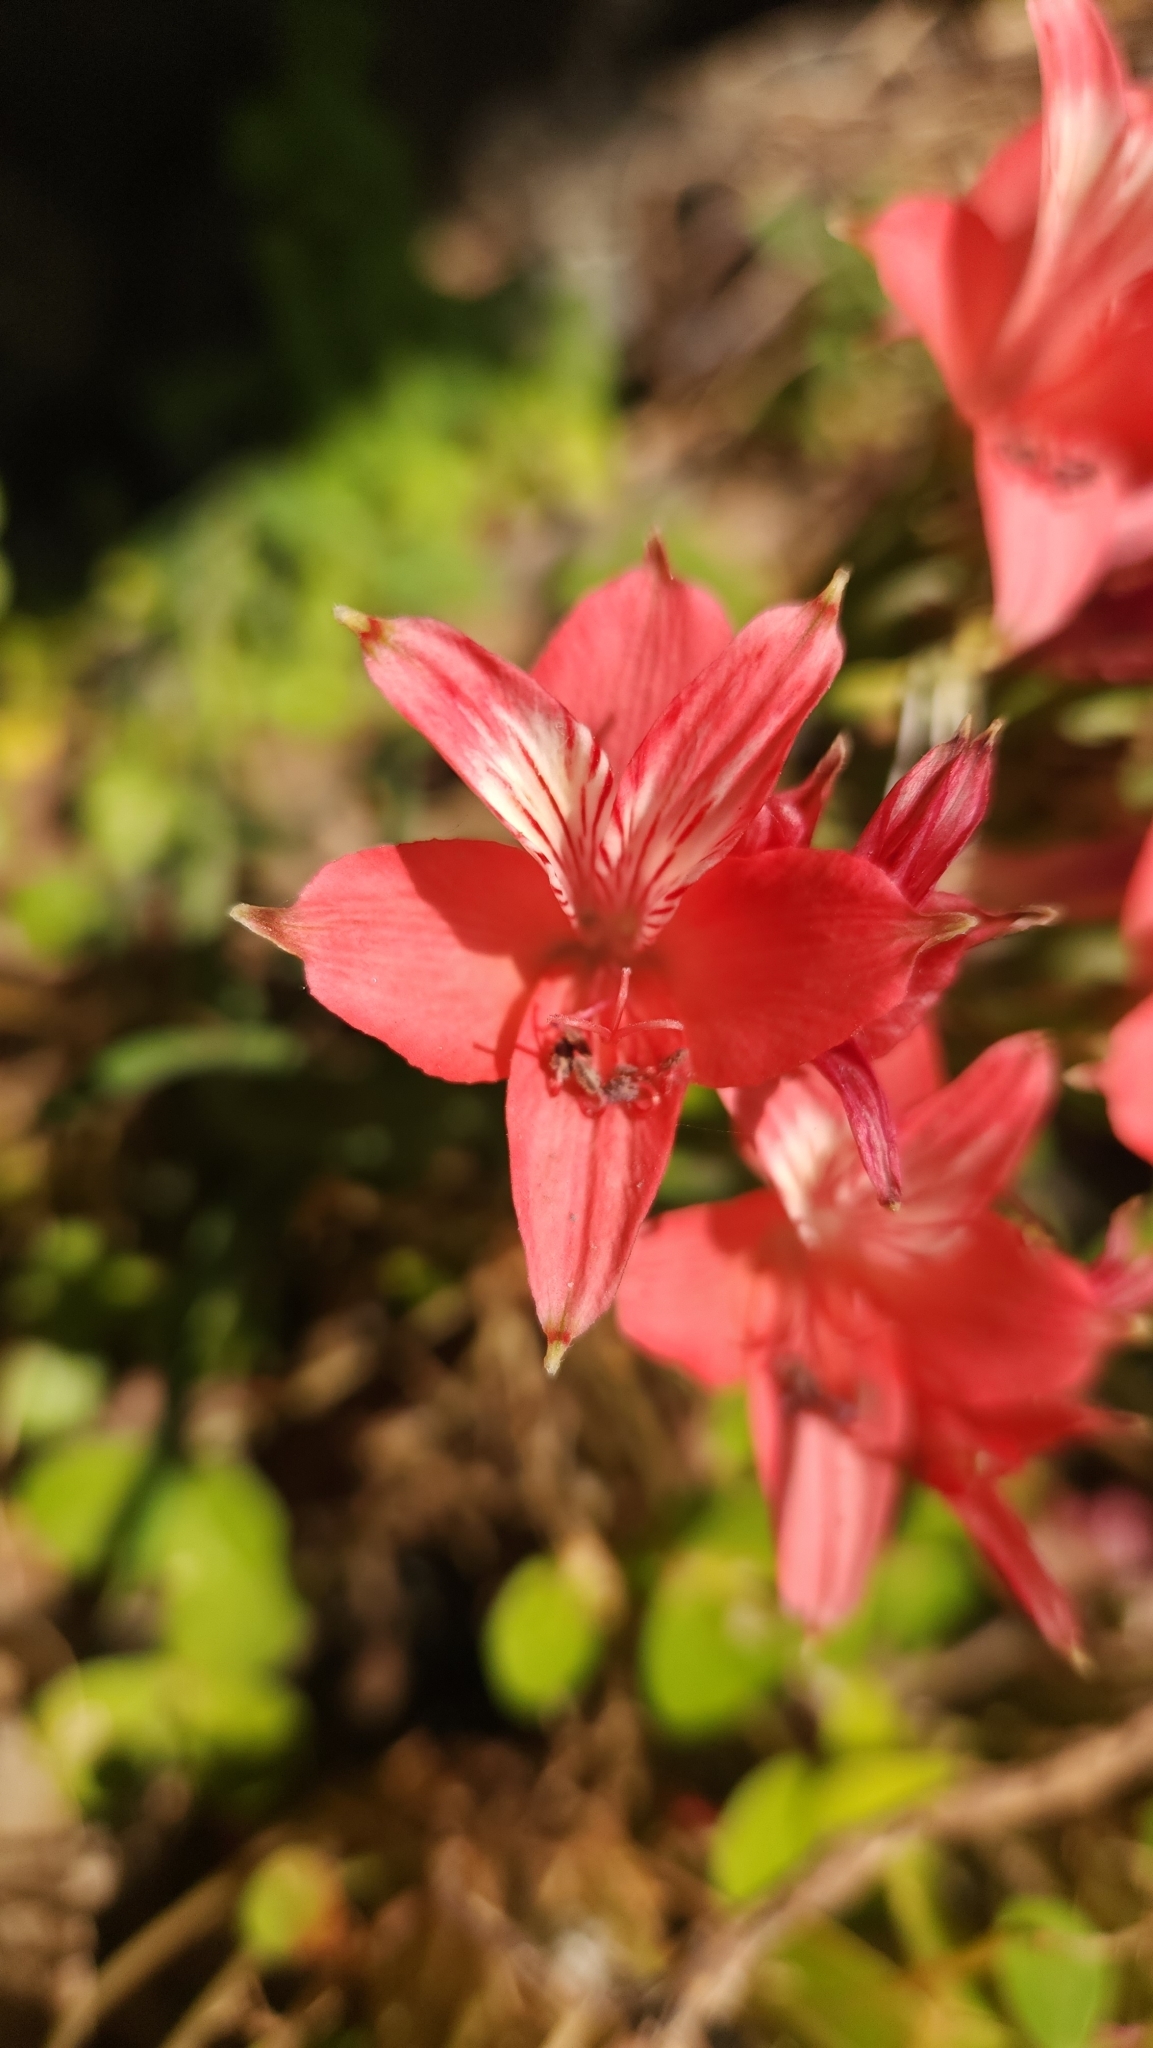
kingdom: Plantae
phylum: Tracheophyta
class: Liliopsida
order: Liliales
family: Alstroemeriaceae
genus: Alstroemeria
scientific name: Alstroemeria ligtu
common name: St. martin's-flower
